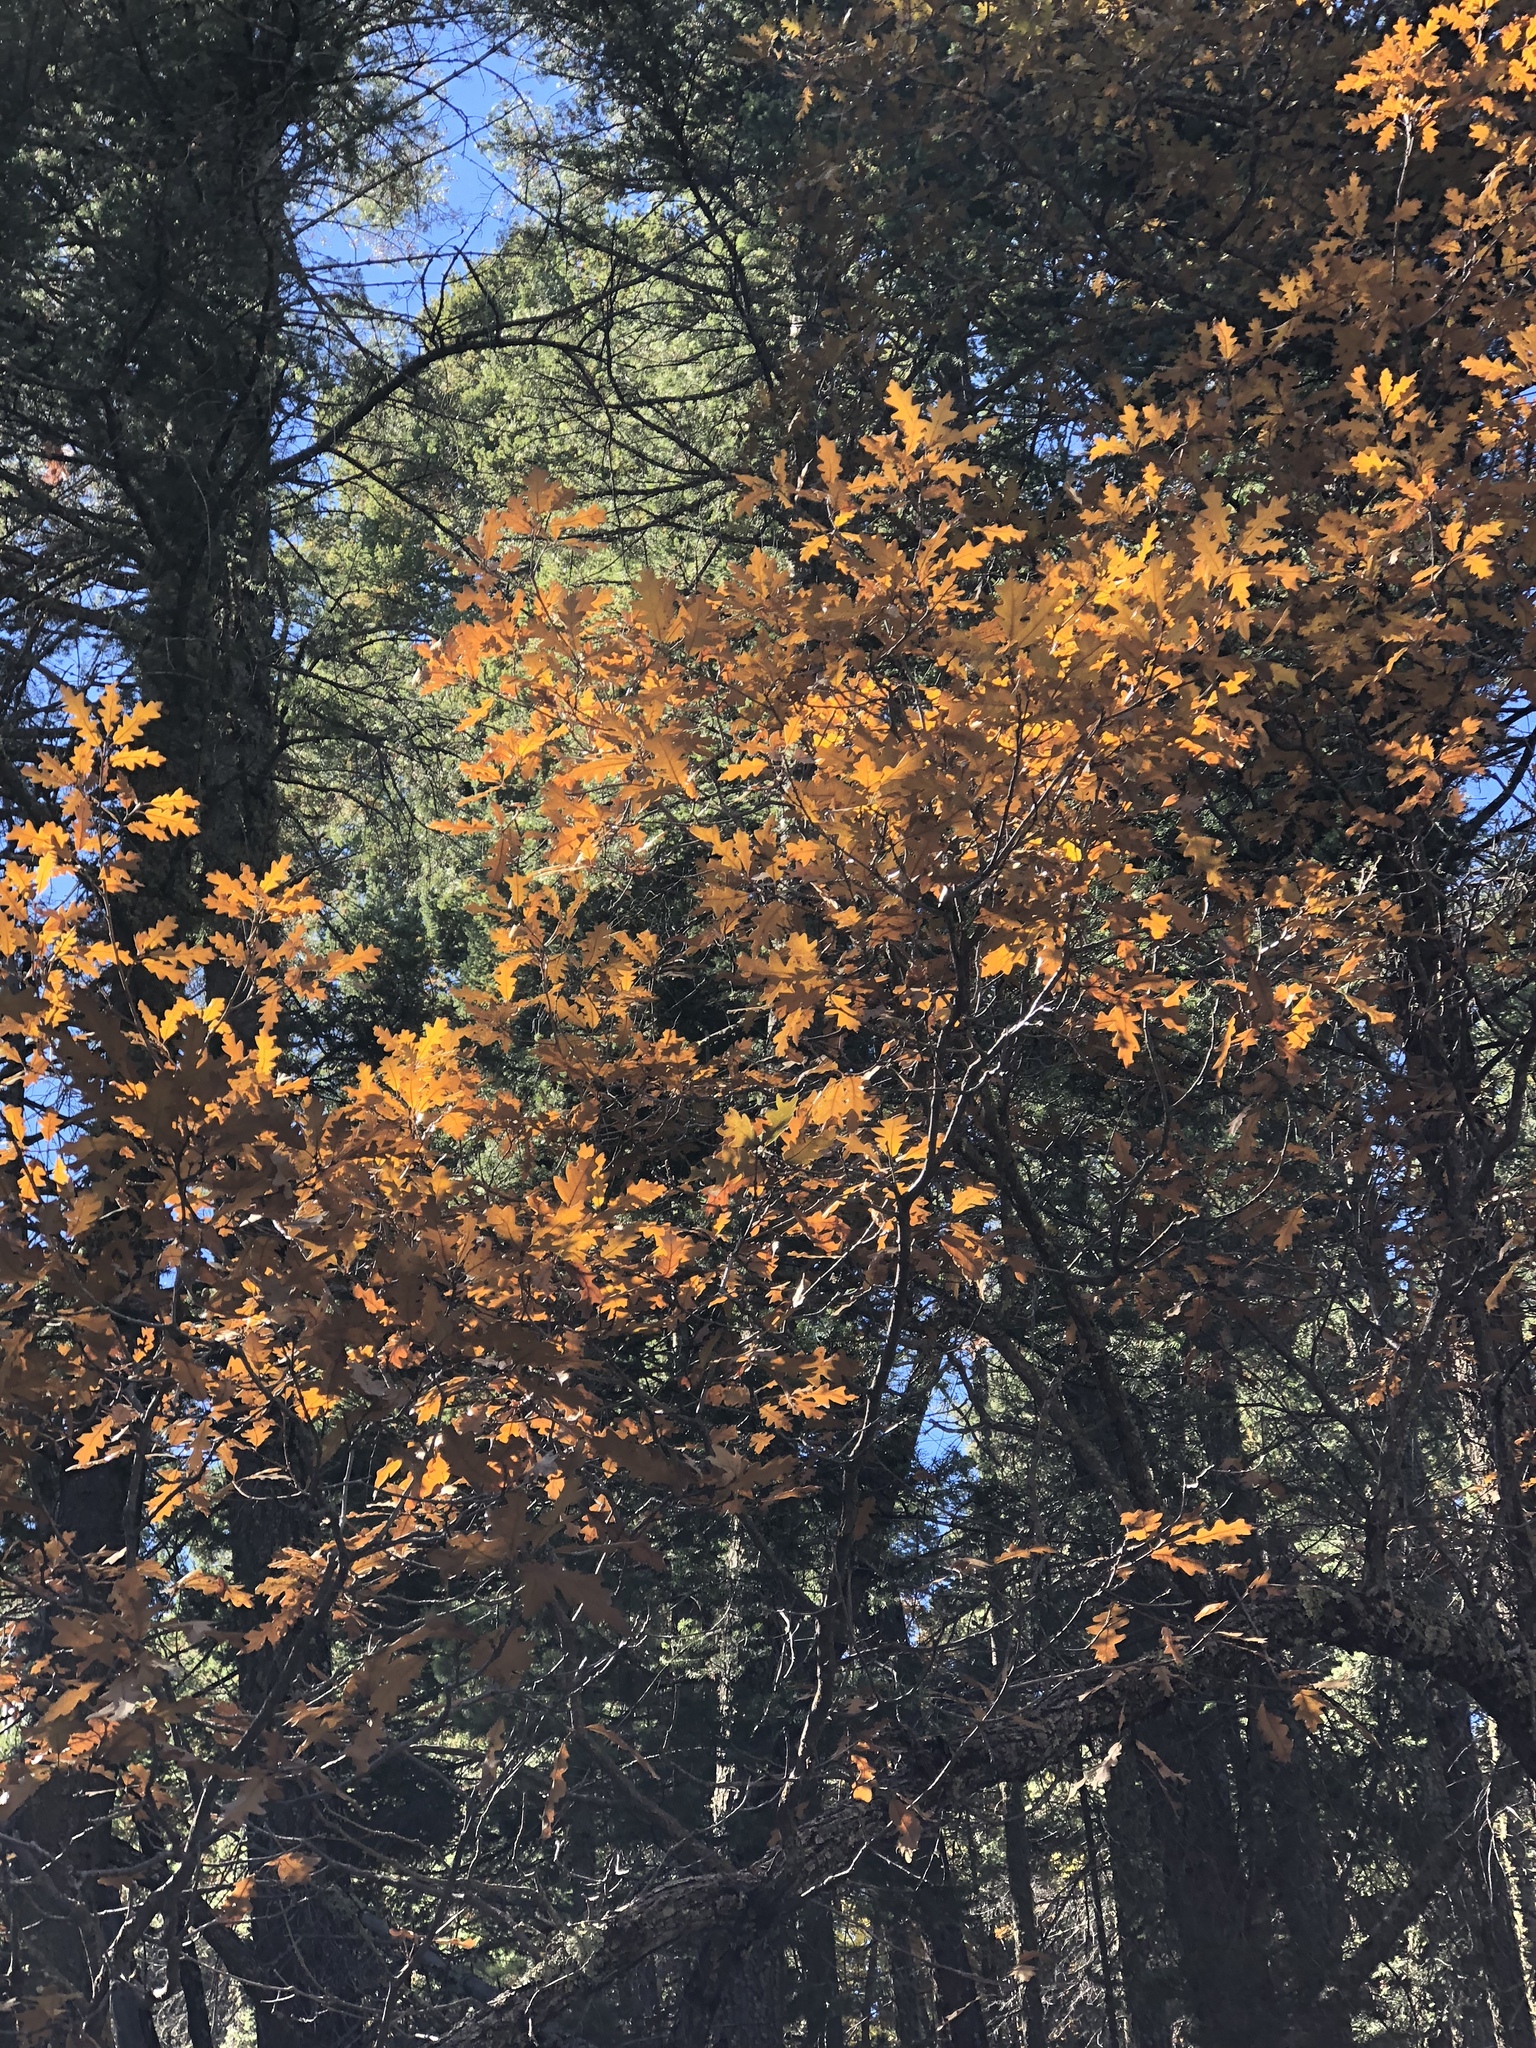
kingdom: Plantae
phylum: Tracheophyta
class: Magnoliopsida
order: Fagales
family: Fagaceae
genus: Quercus
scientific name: Quercus gambelii
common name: Gambel oak
